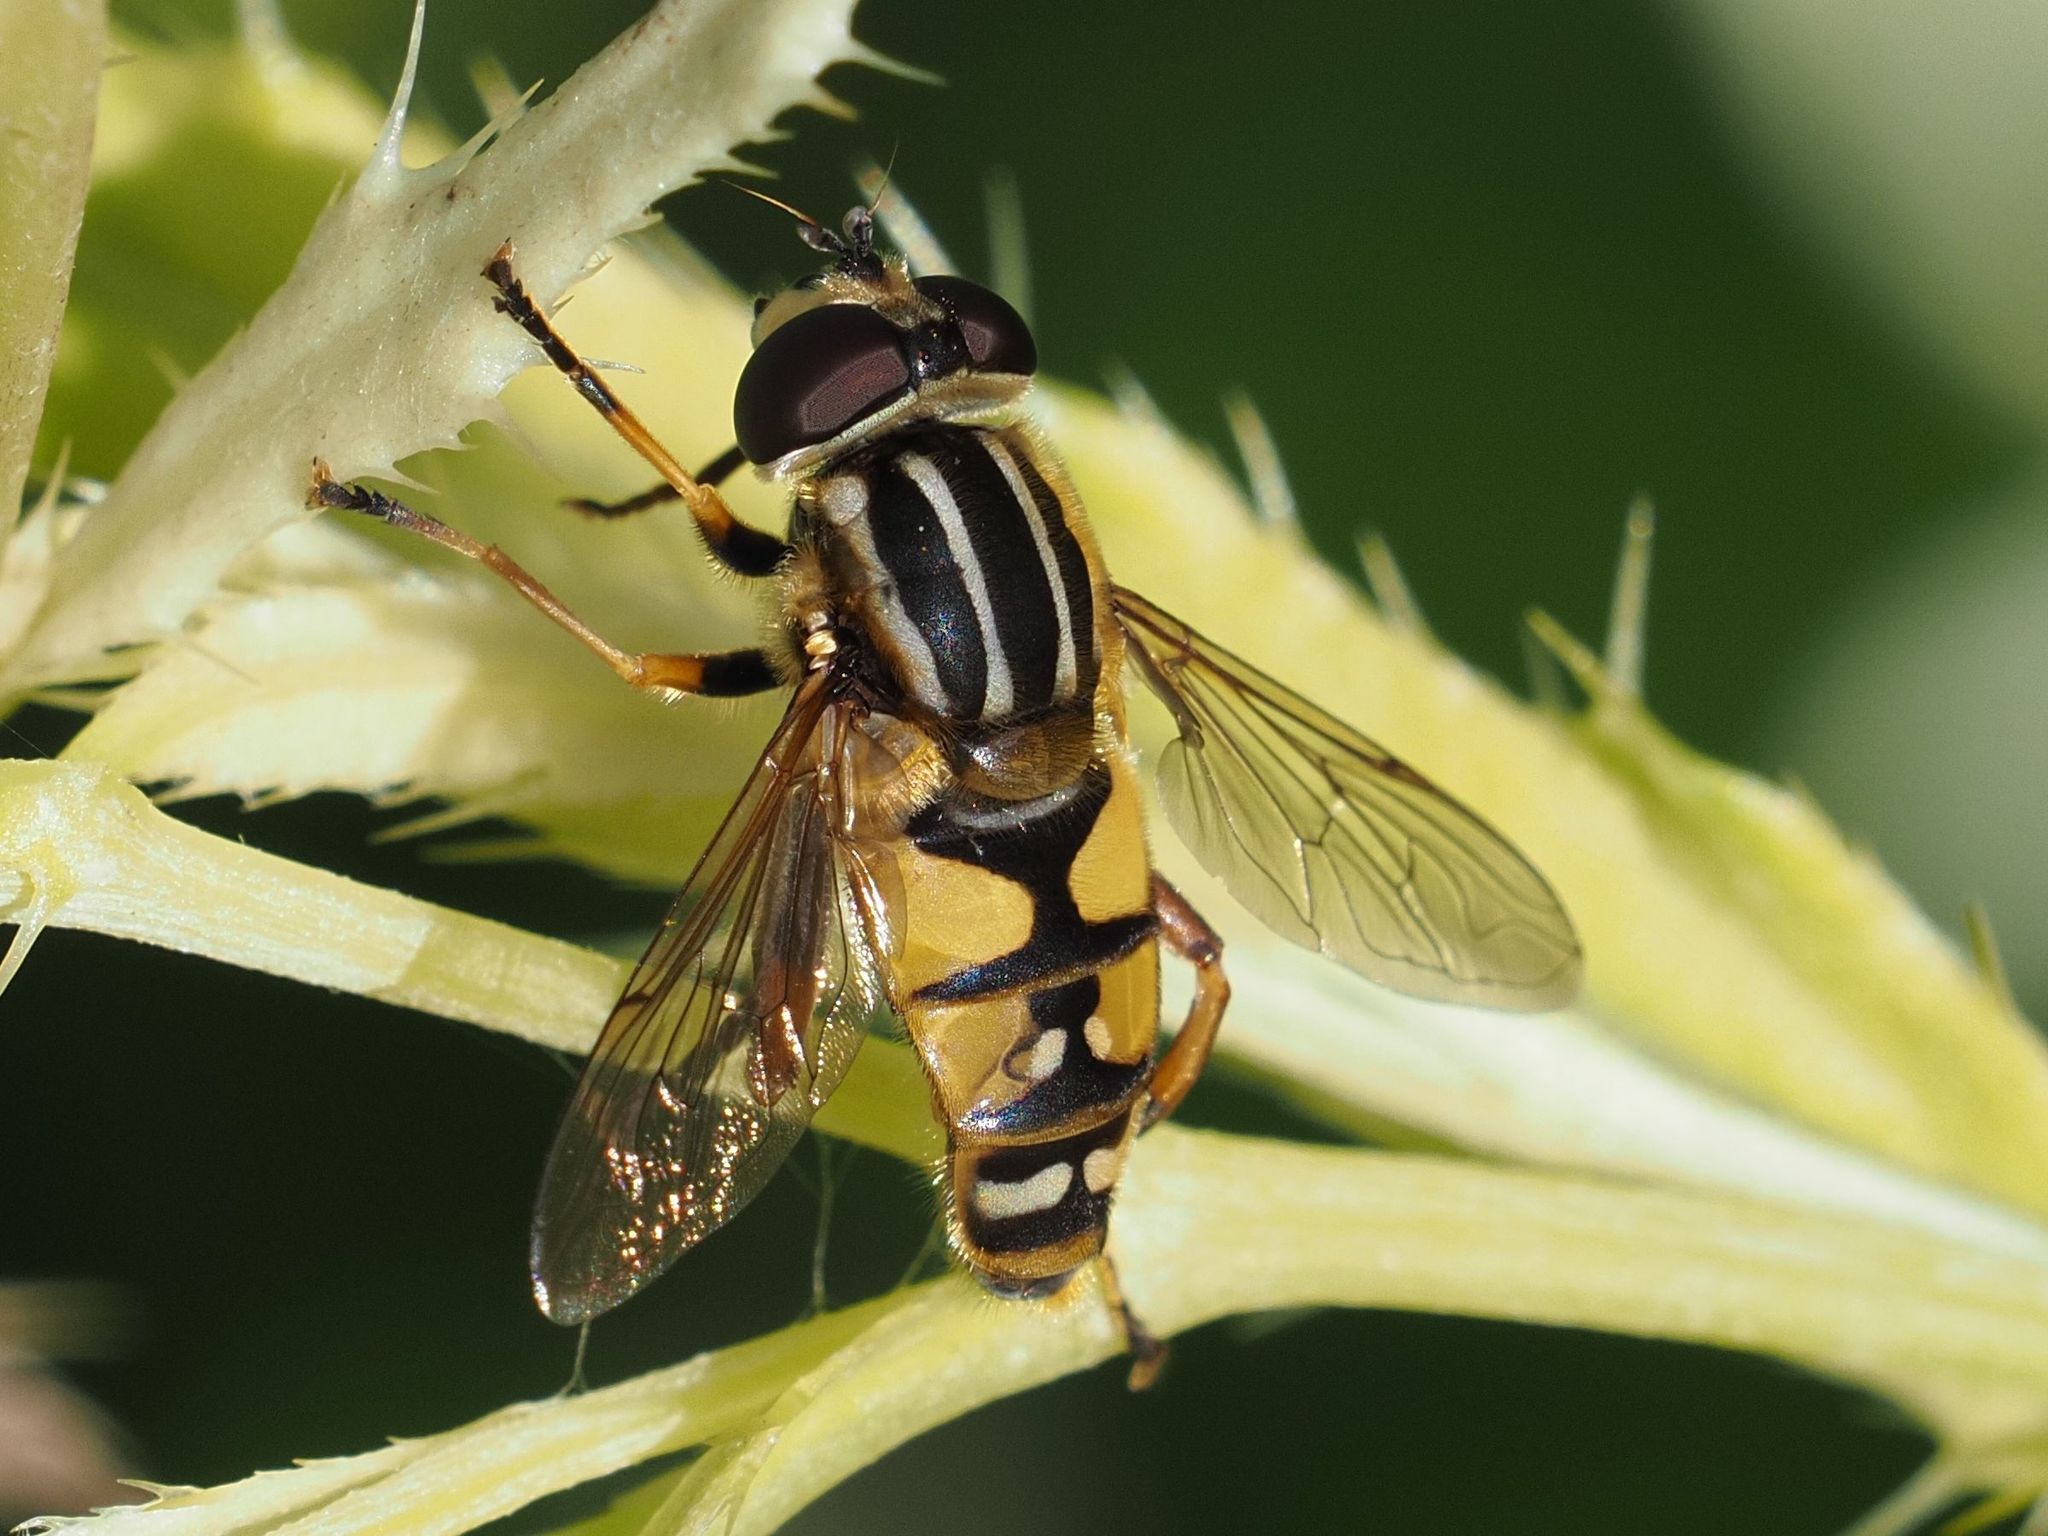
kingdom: Animalia
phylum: Arthropoda
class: Insecta
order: Diptera
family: Syrphidae
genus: Helophilus
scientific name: Helophilus pendulus
